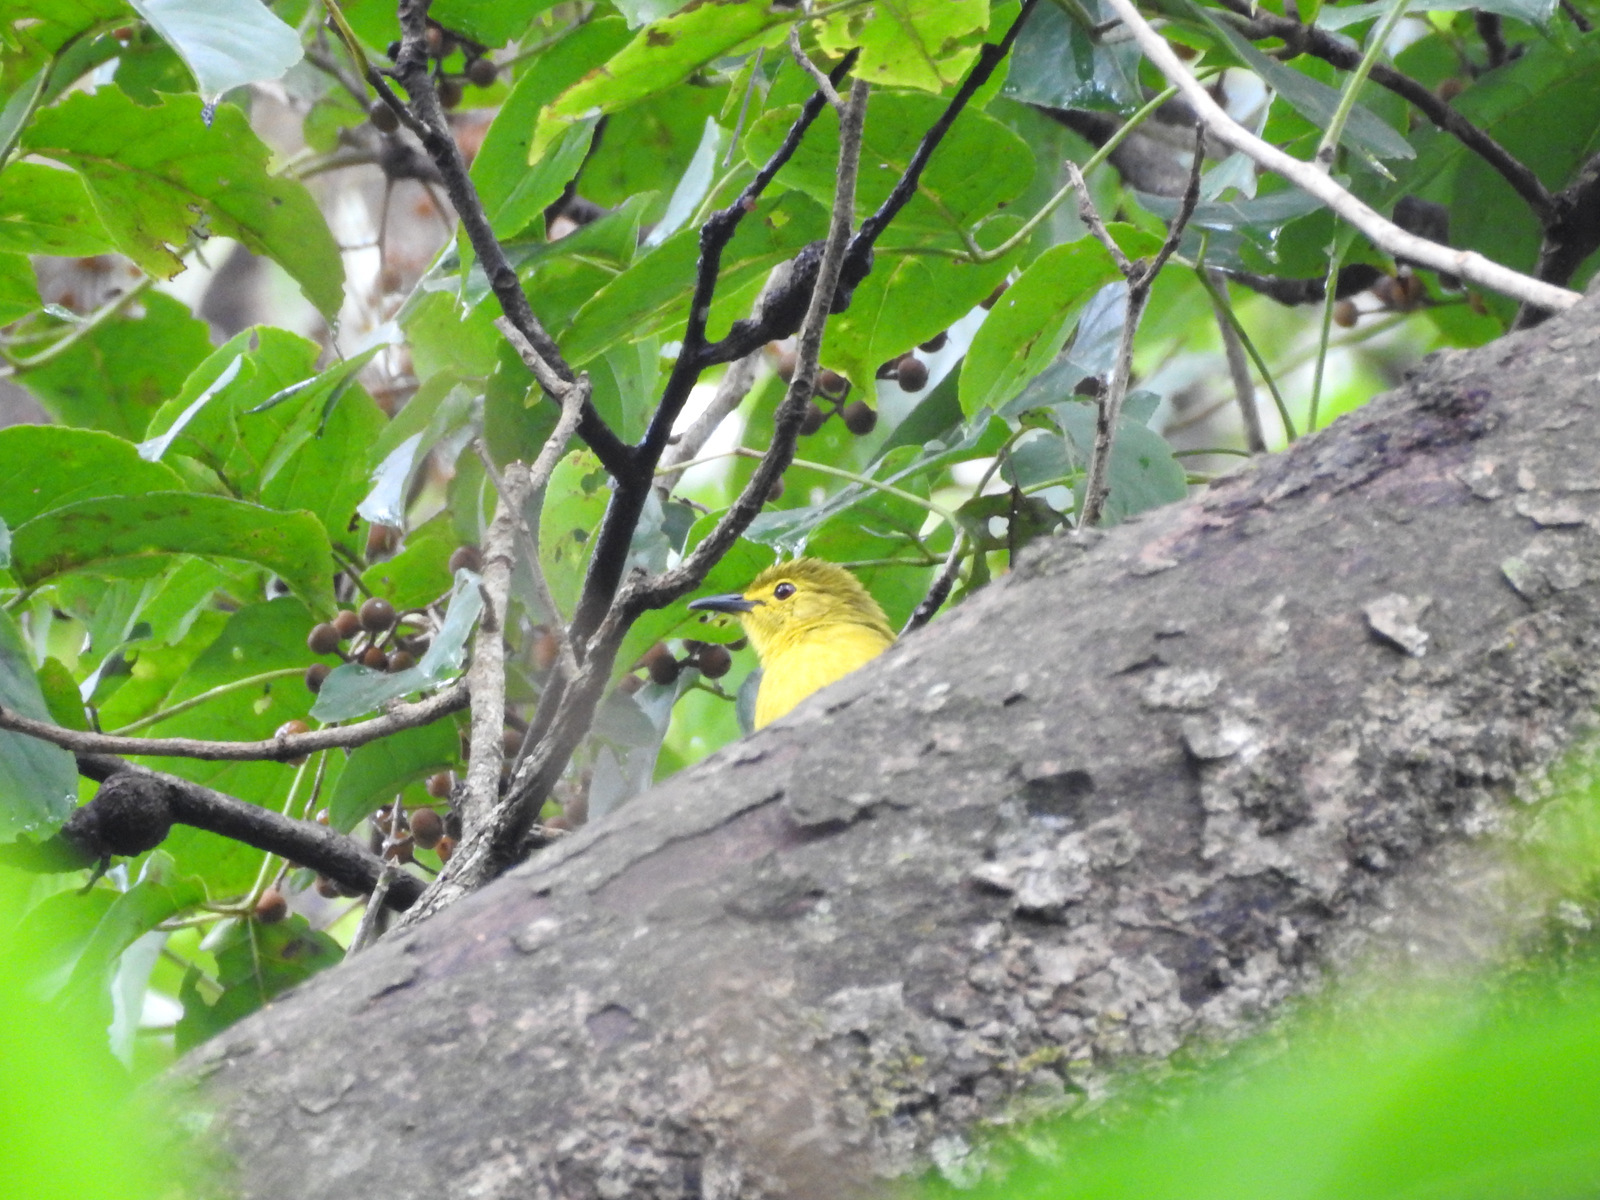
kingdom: Animalia
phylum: Chordata
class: Aves
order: Passeriformes
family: Pycnonotidae
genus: Acritillas
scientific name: Acritillas indica
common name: Yellow-browed bulbul
